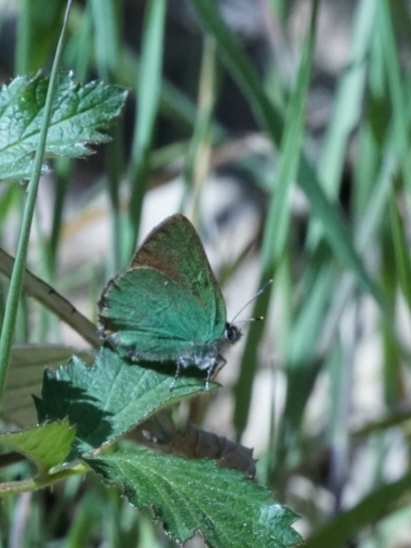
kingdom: Animalia
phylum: Arthropoda
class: Insecta
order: Lepidoptera
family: Lycaenidae
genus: Callophrys
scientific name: Callophrys rubi
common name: Green hairstreak
